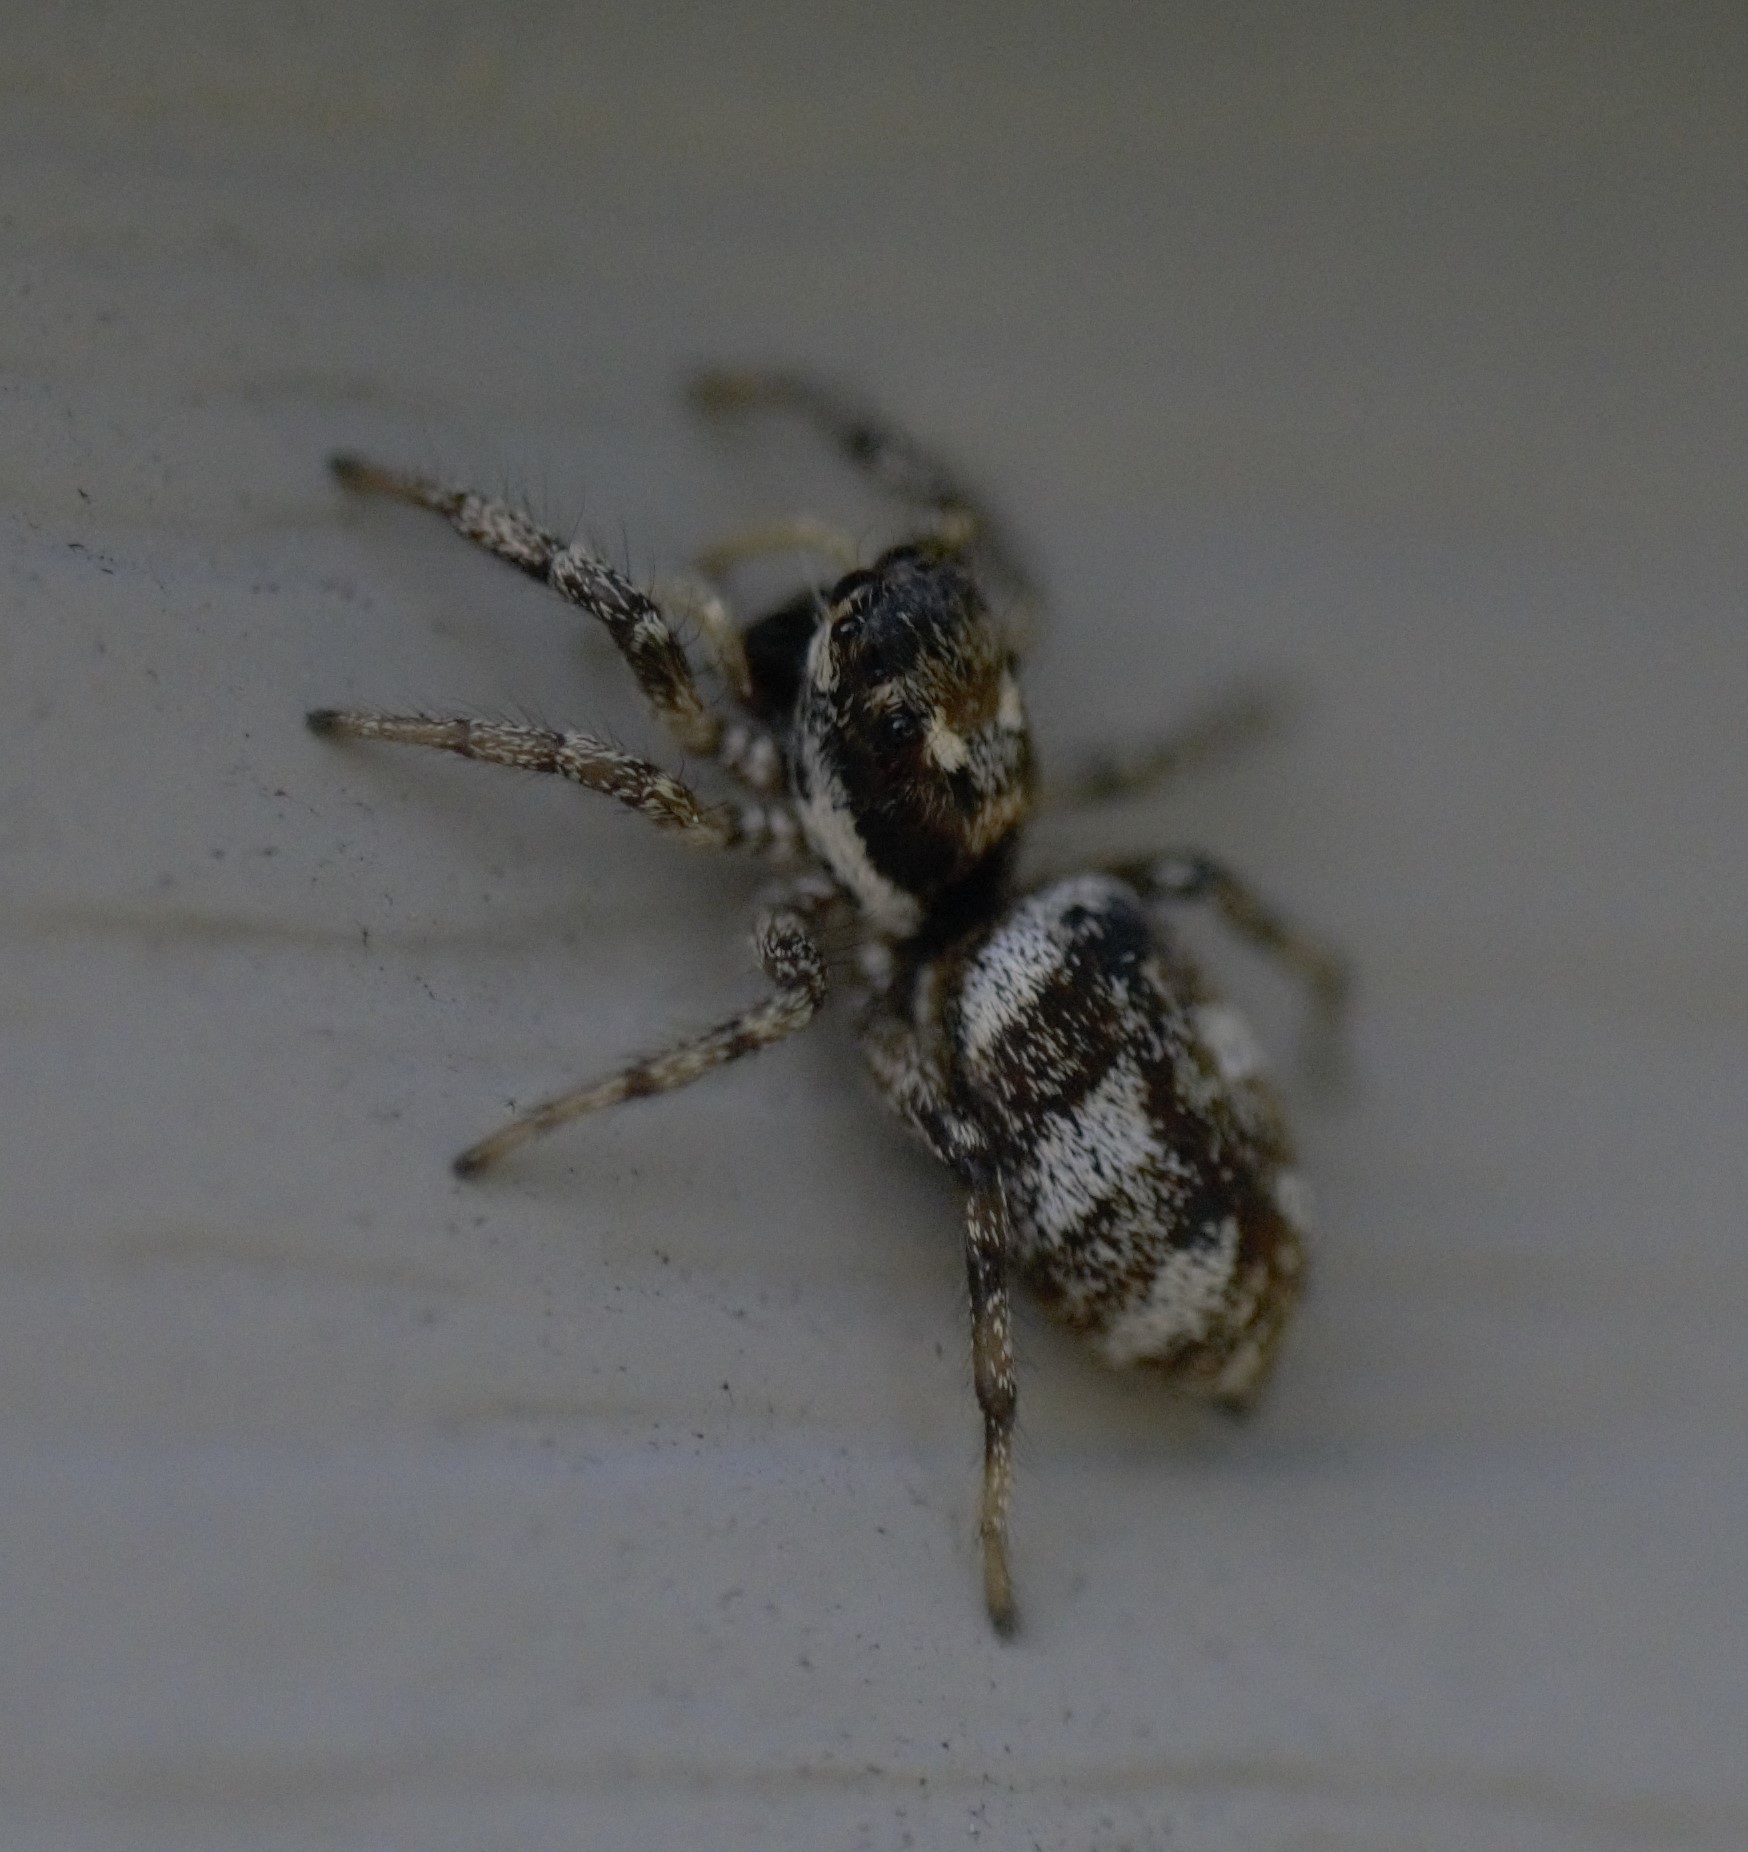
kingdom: Animalia
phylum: Arthropoda
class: Arachnida
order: Araneae
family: Salticidae
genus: Salticus
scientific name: Salticus scenicus
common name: Zebra jumper
